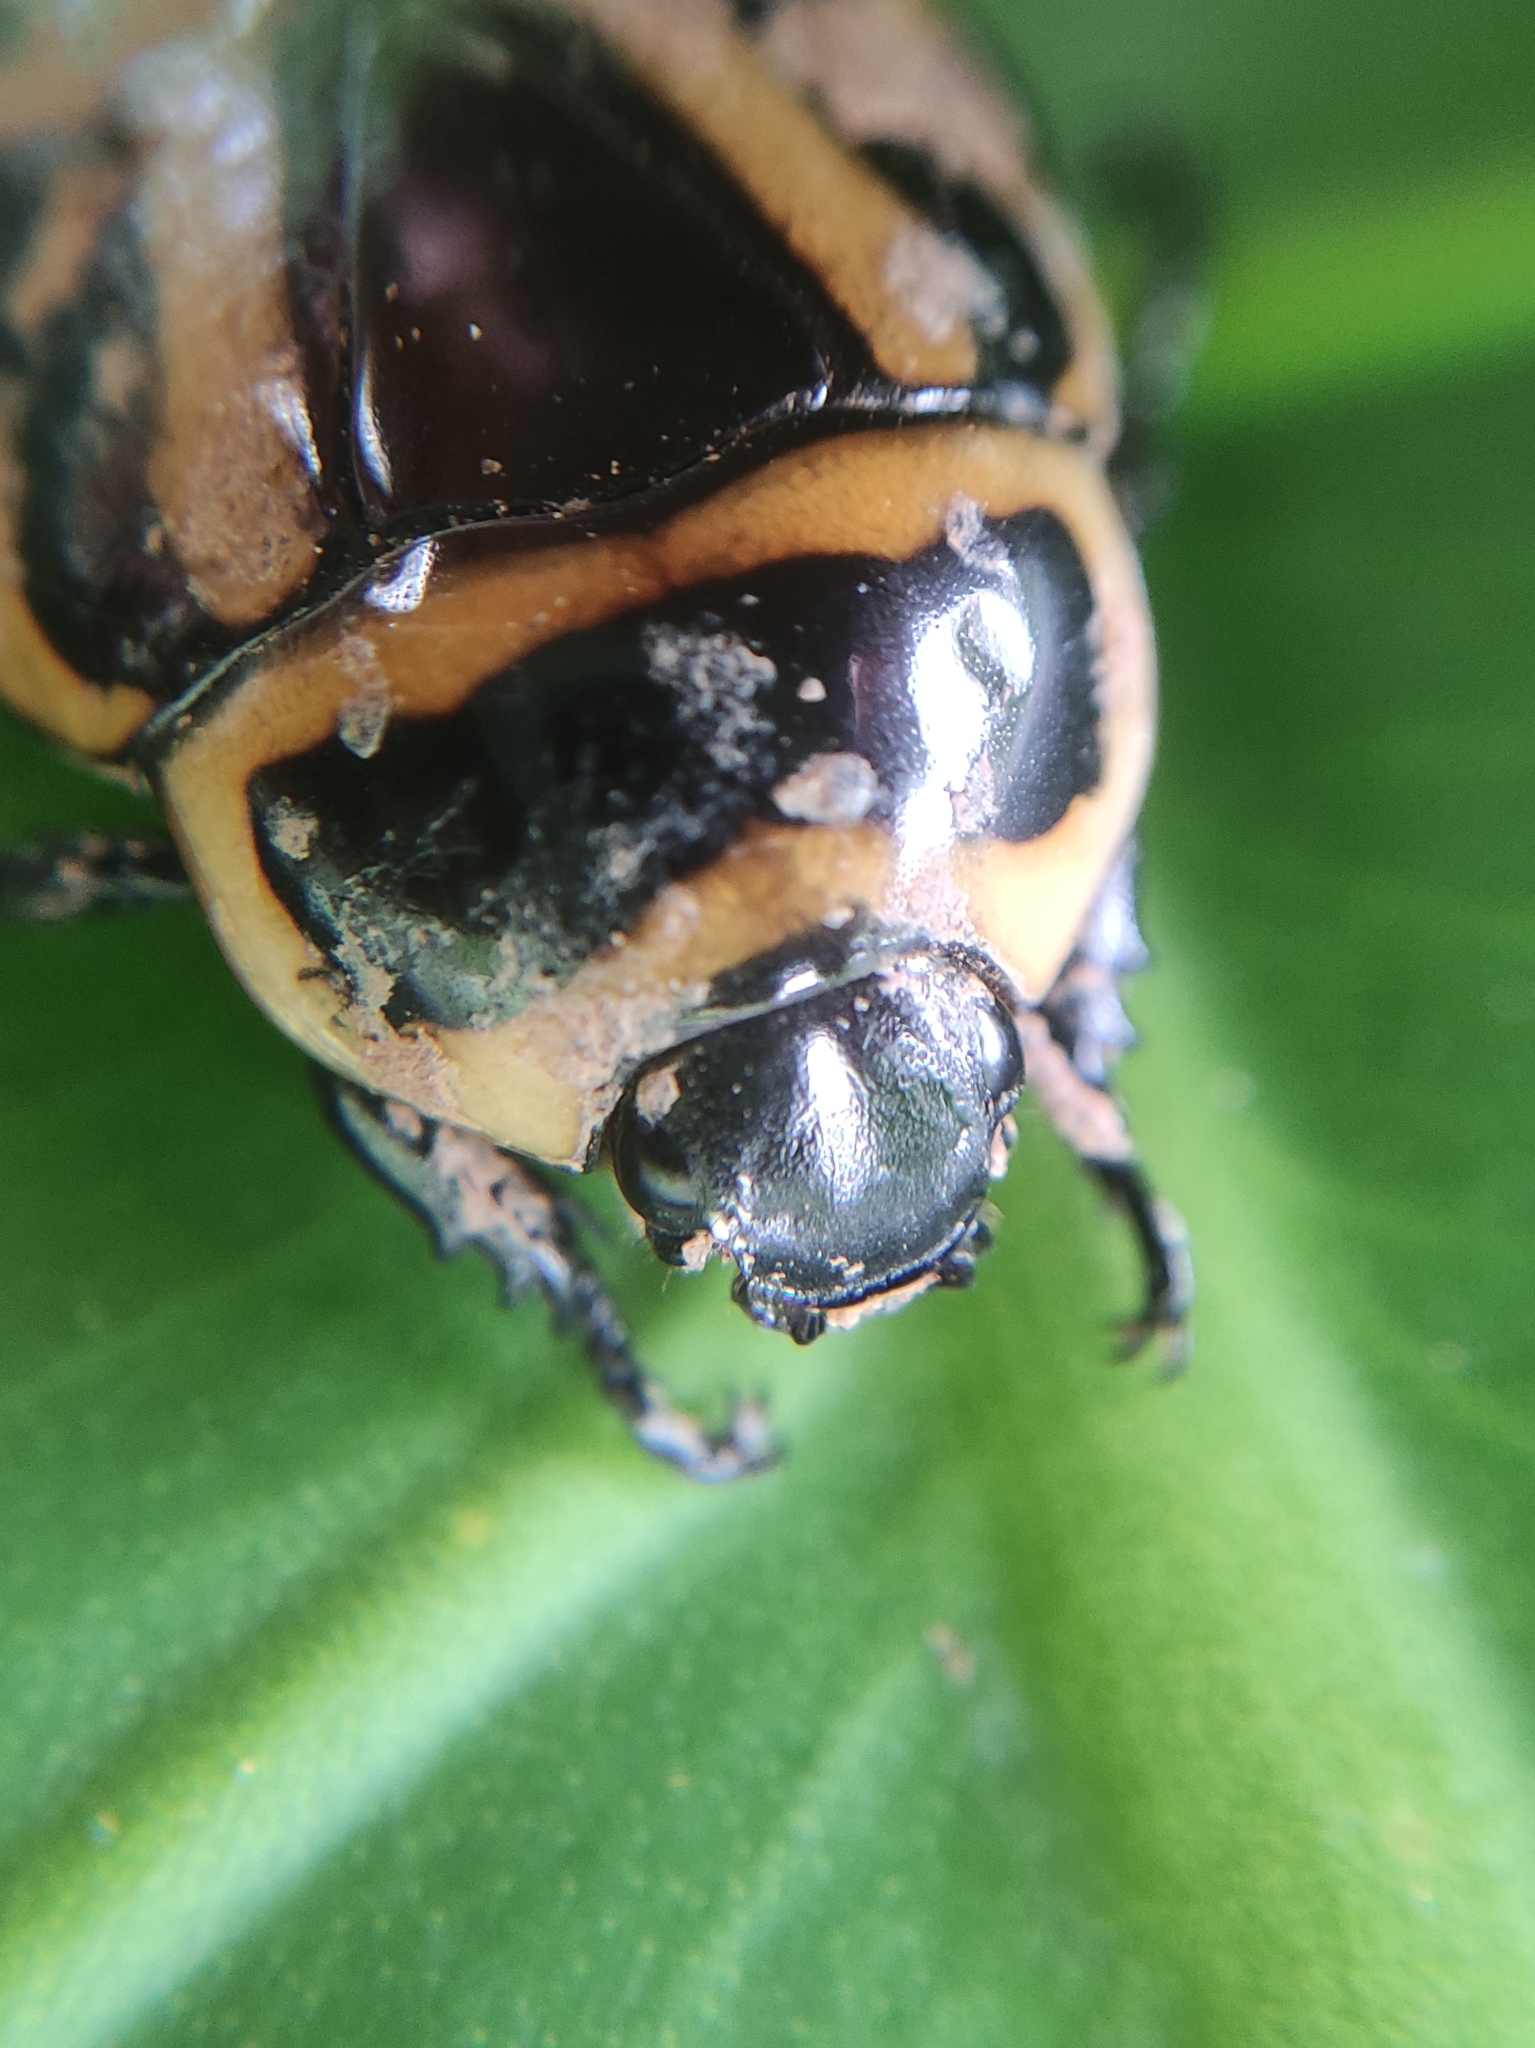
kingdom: Animalia
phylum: Arthropoda
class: Insecta
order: Coleoptera
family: Scarabaeidae
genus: Macraspis
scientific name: Macraspis cincta
